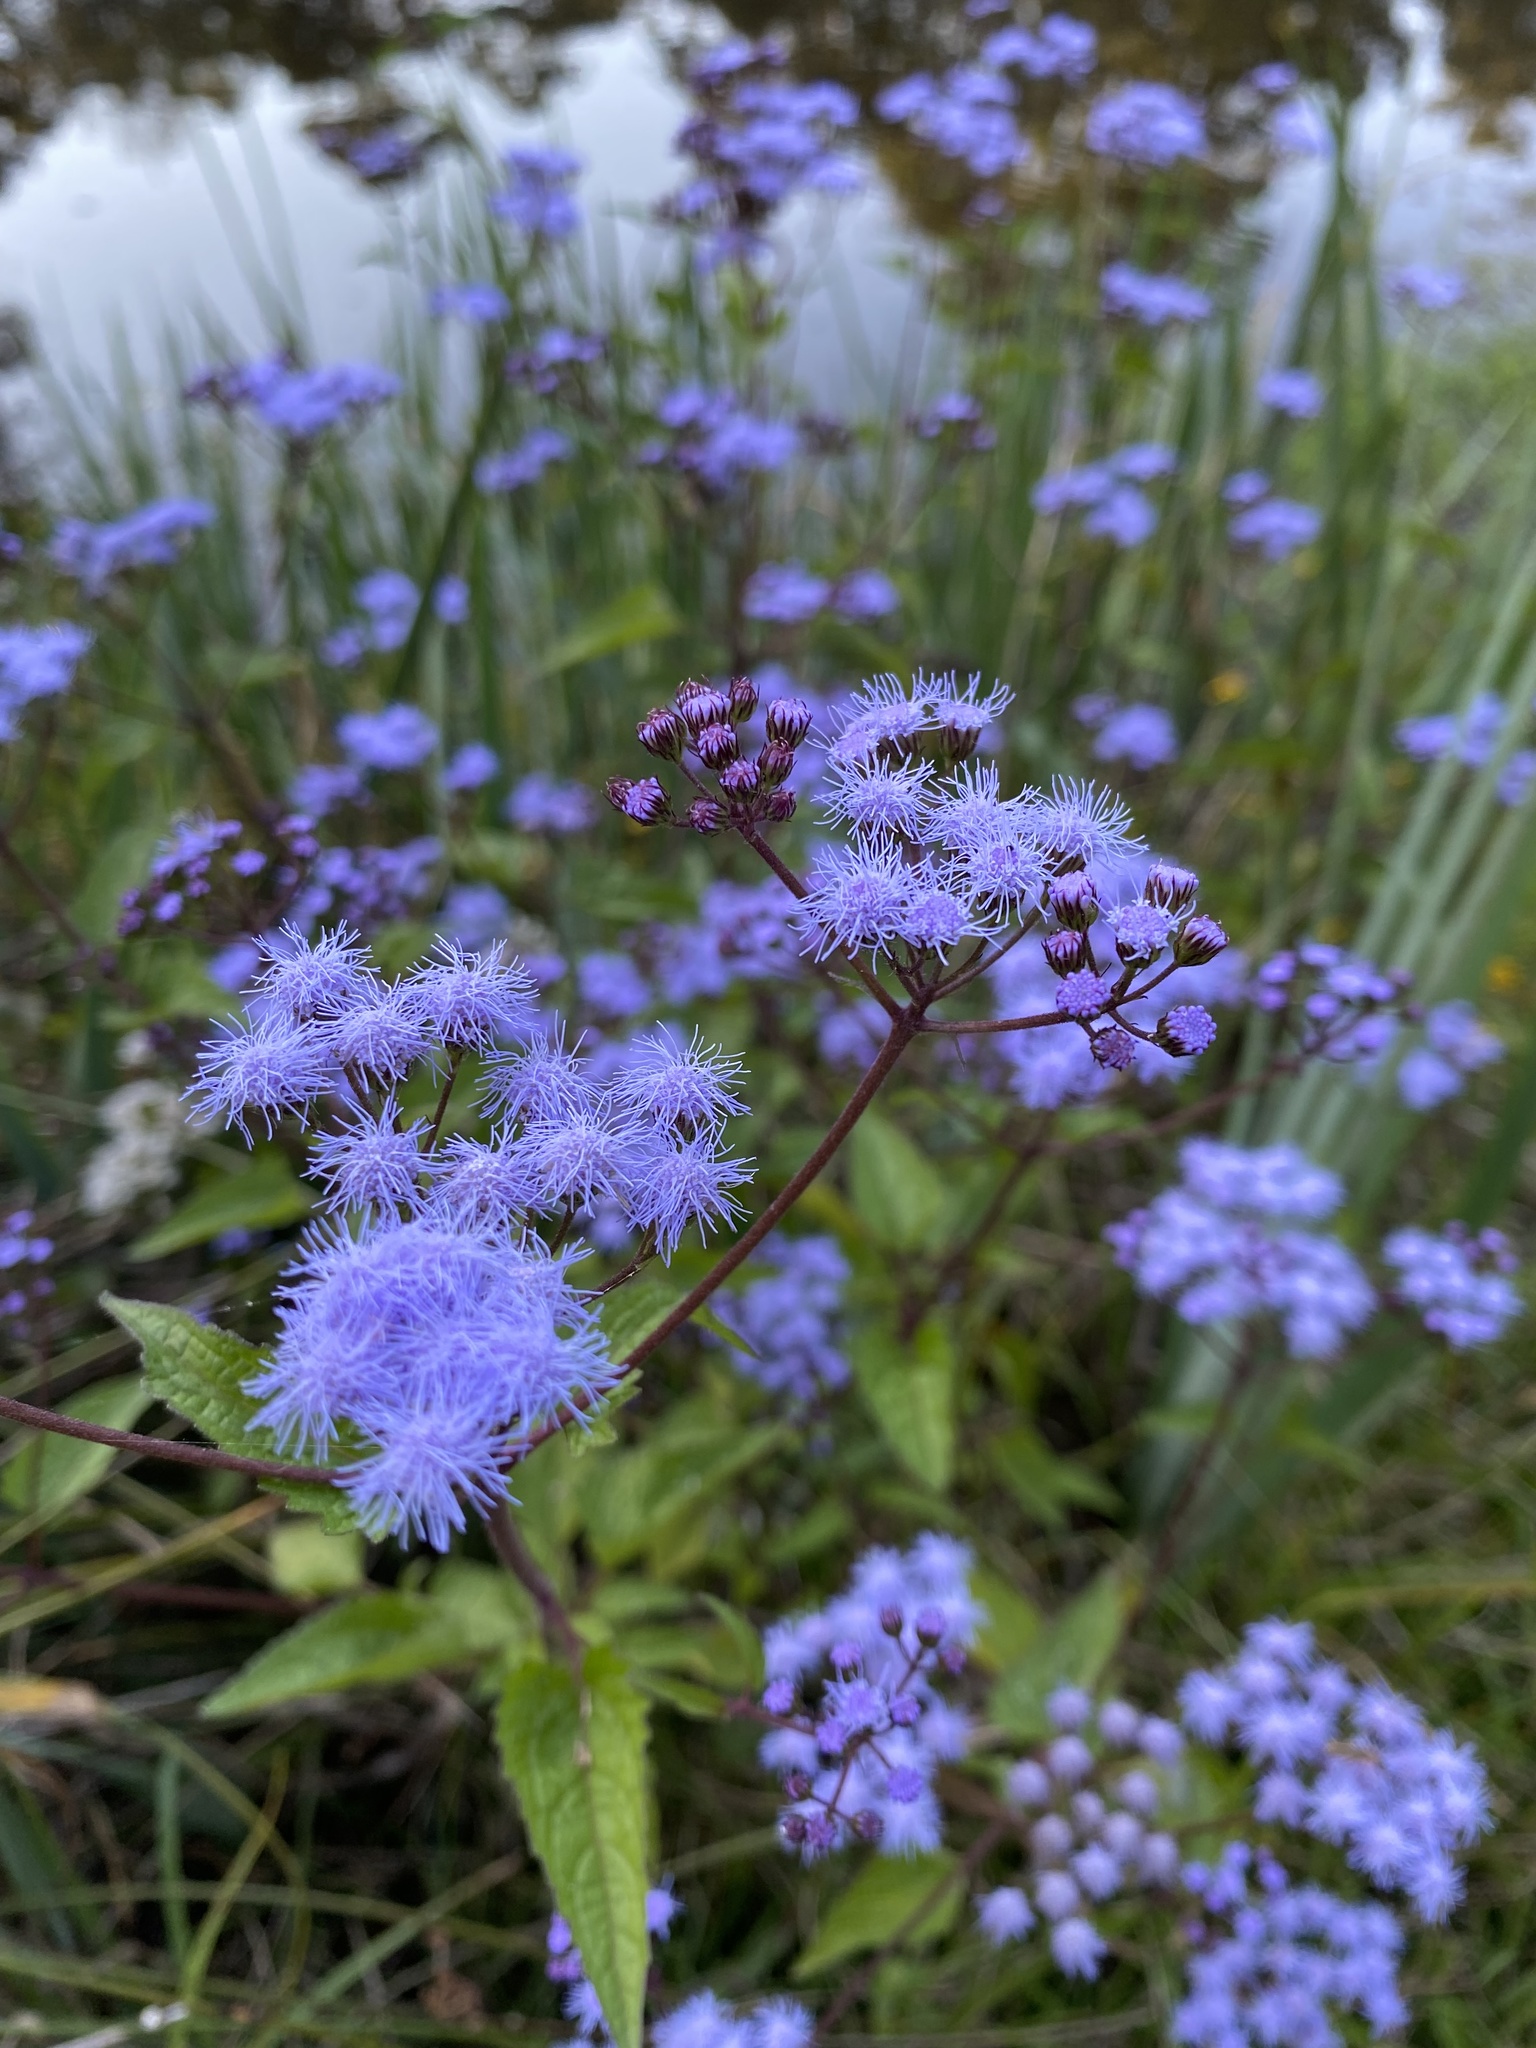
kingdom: Plantae
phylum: Tracheophyta
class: Magnoliopsida
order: Asterales
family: Asteraceae
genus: Conoclinium
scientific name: Conoclinium coelestinum
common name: Blue mistflower
